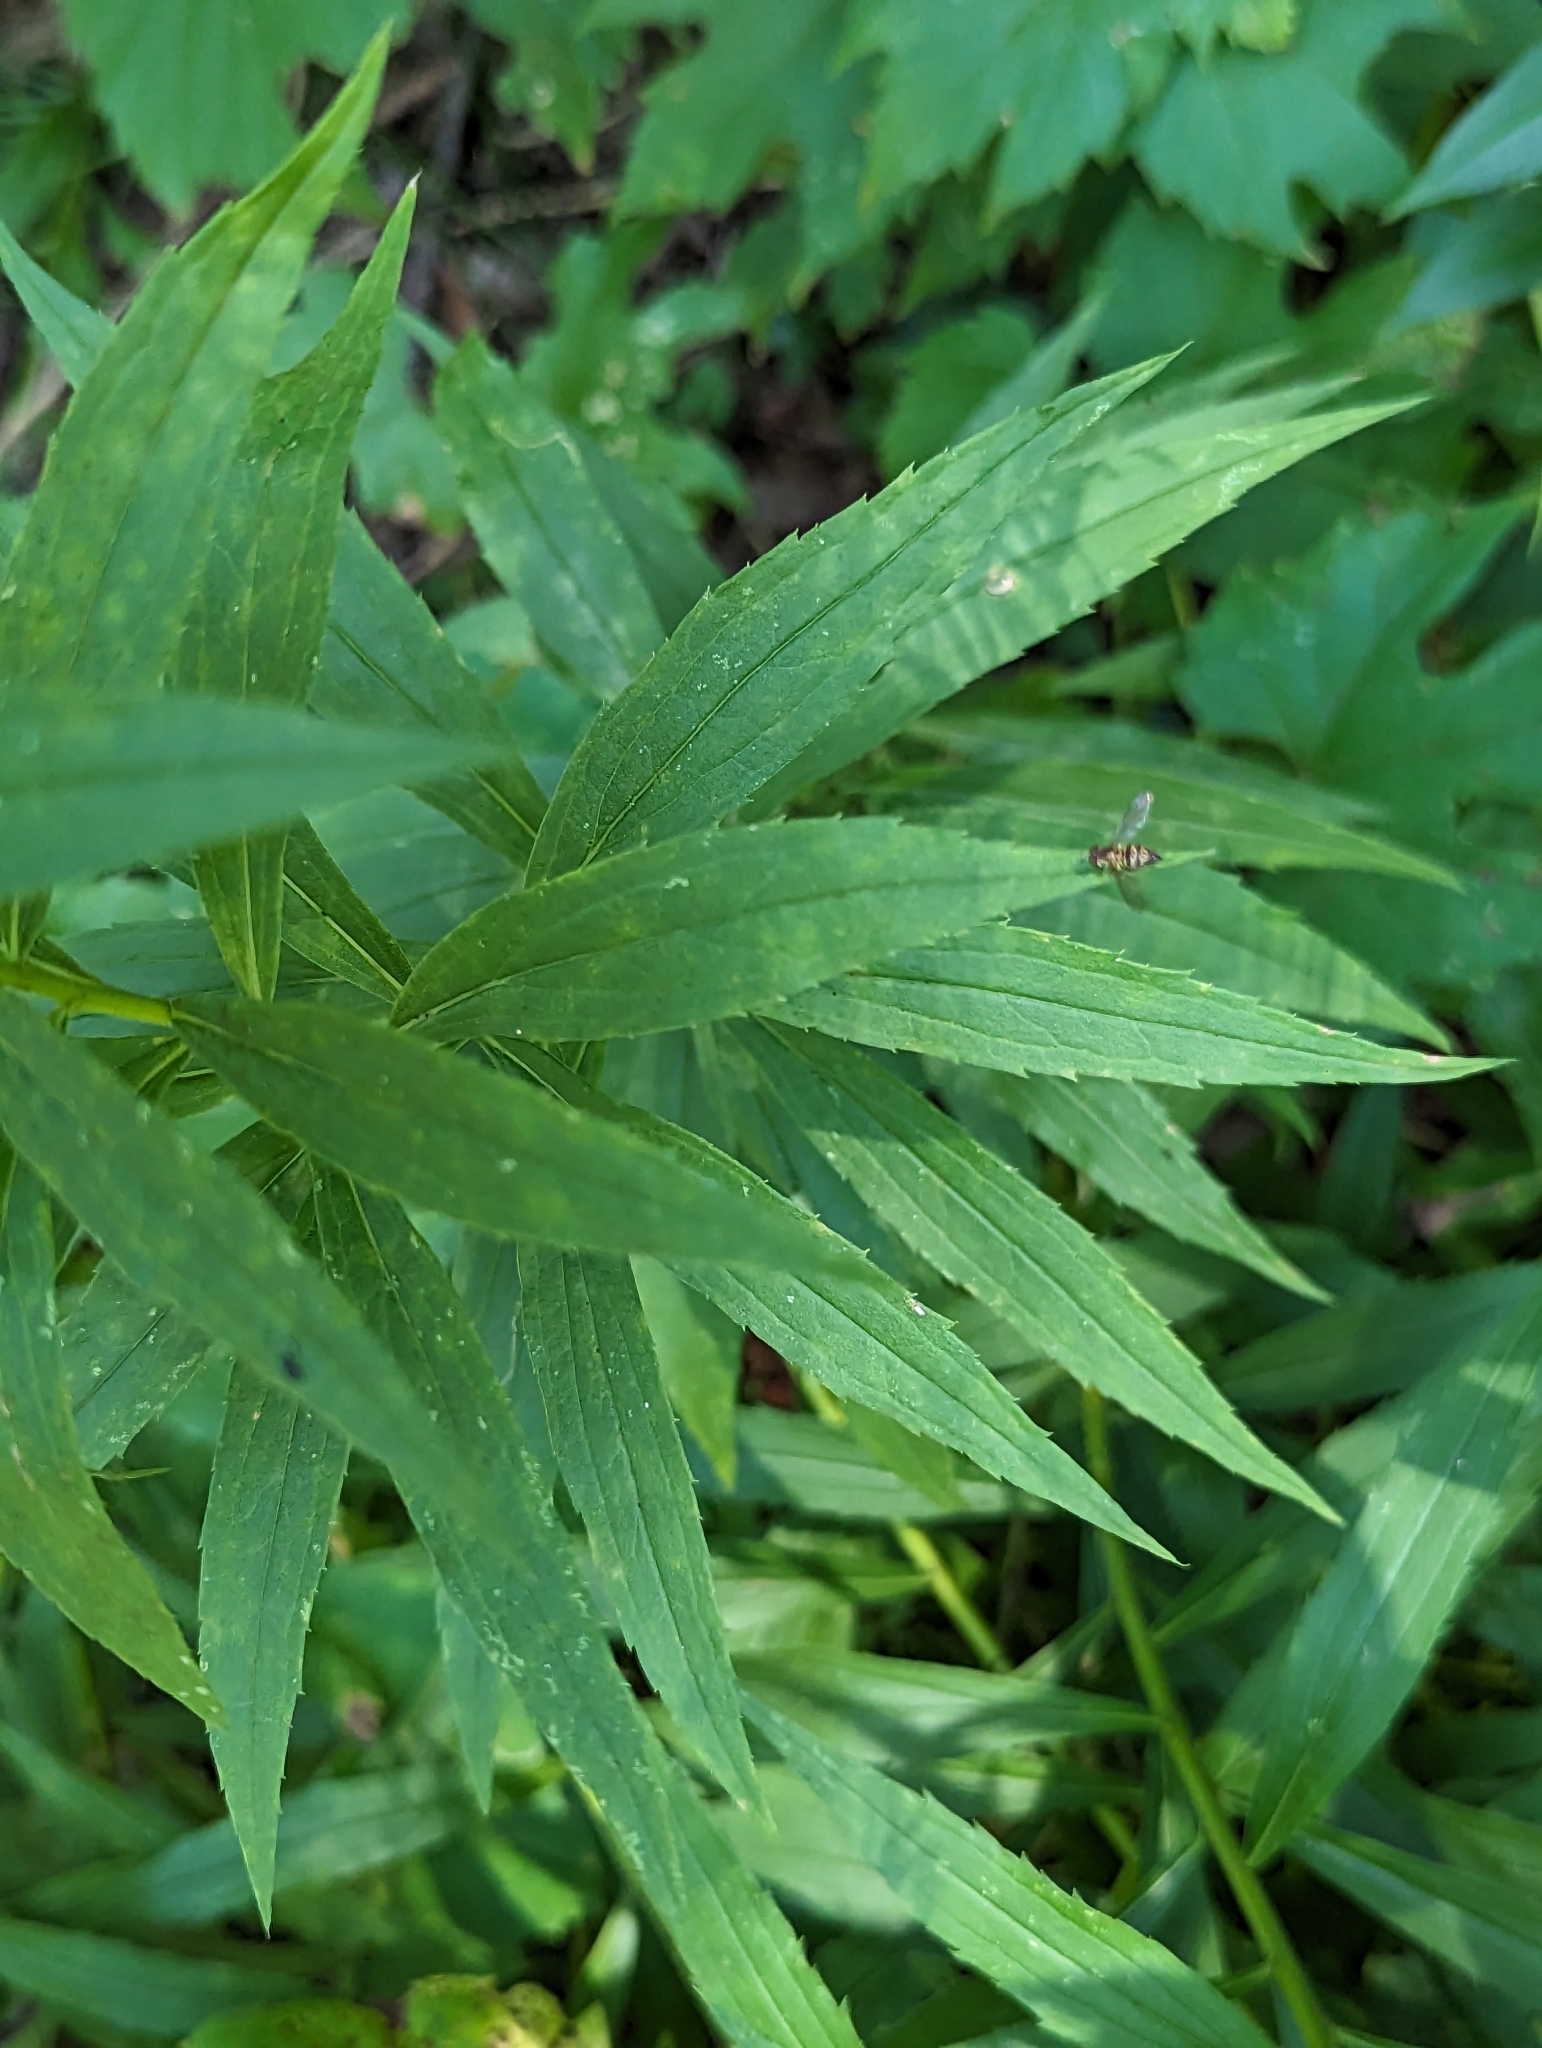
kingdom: Animalia
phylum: Arthropoda
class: Insecta
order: Diptera
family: Syrphidae
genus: Toxomerus
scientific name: Toxomerus geminatus
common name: Eastern calligrapher
